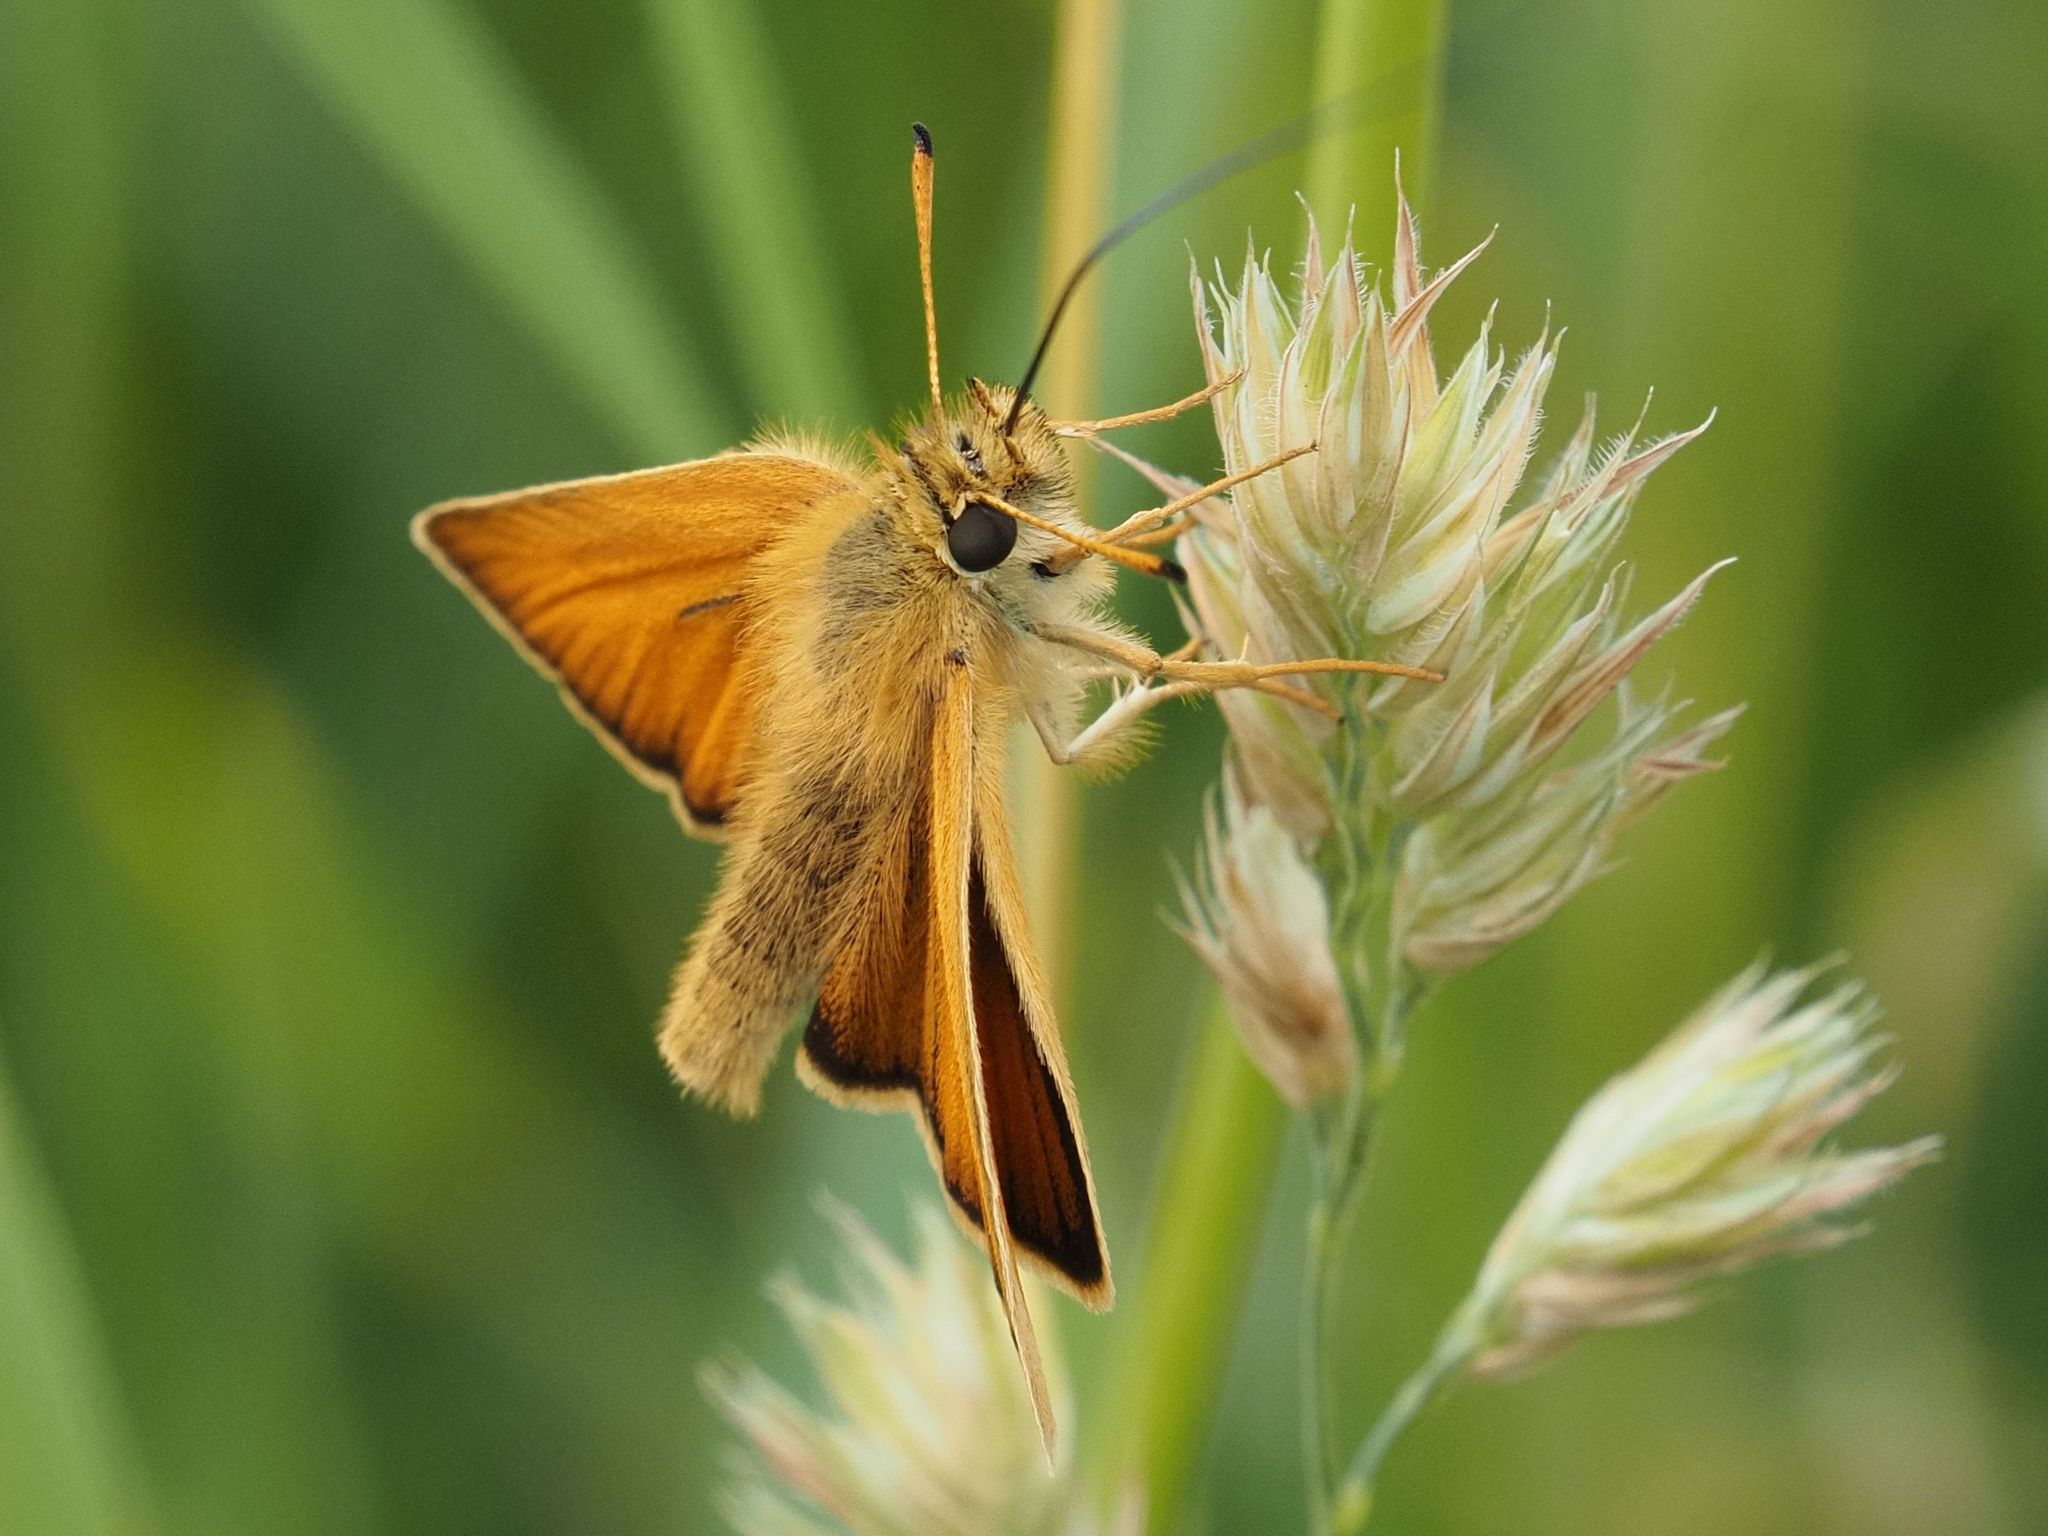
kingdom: Animalia
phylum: Arthropoda
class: Insecta
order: Lepidoptera
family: Hesperiidae
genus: Thymelicus
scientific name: Thymelicus lineola
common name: Essex skipper
